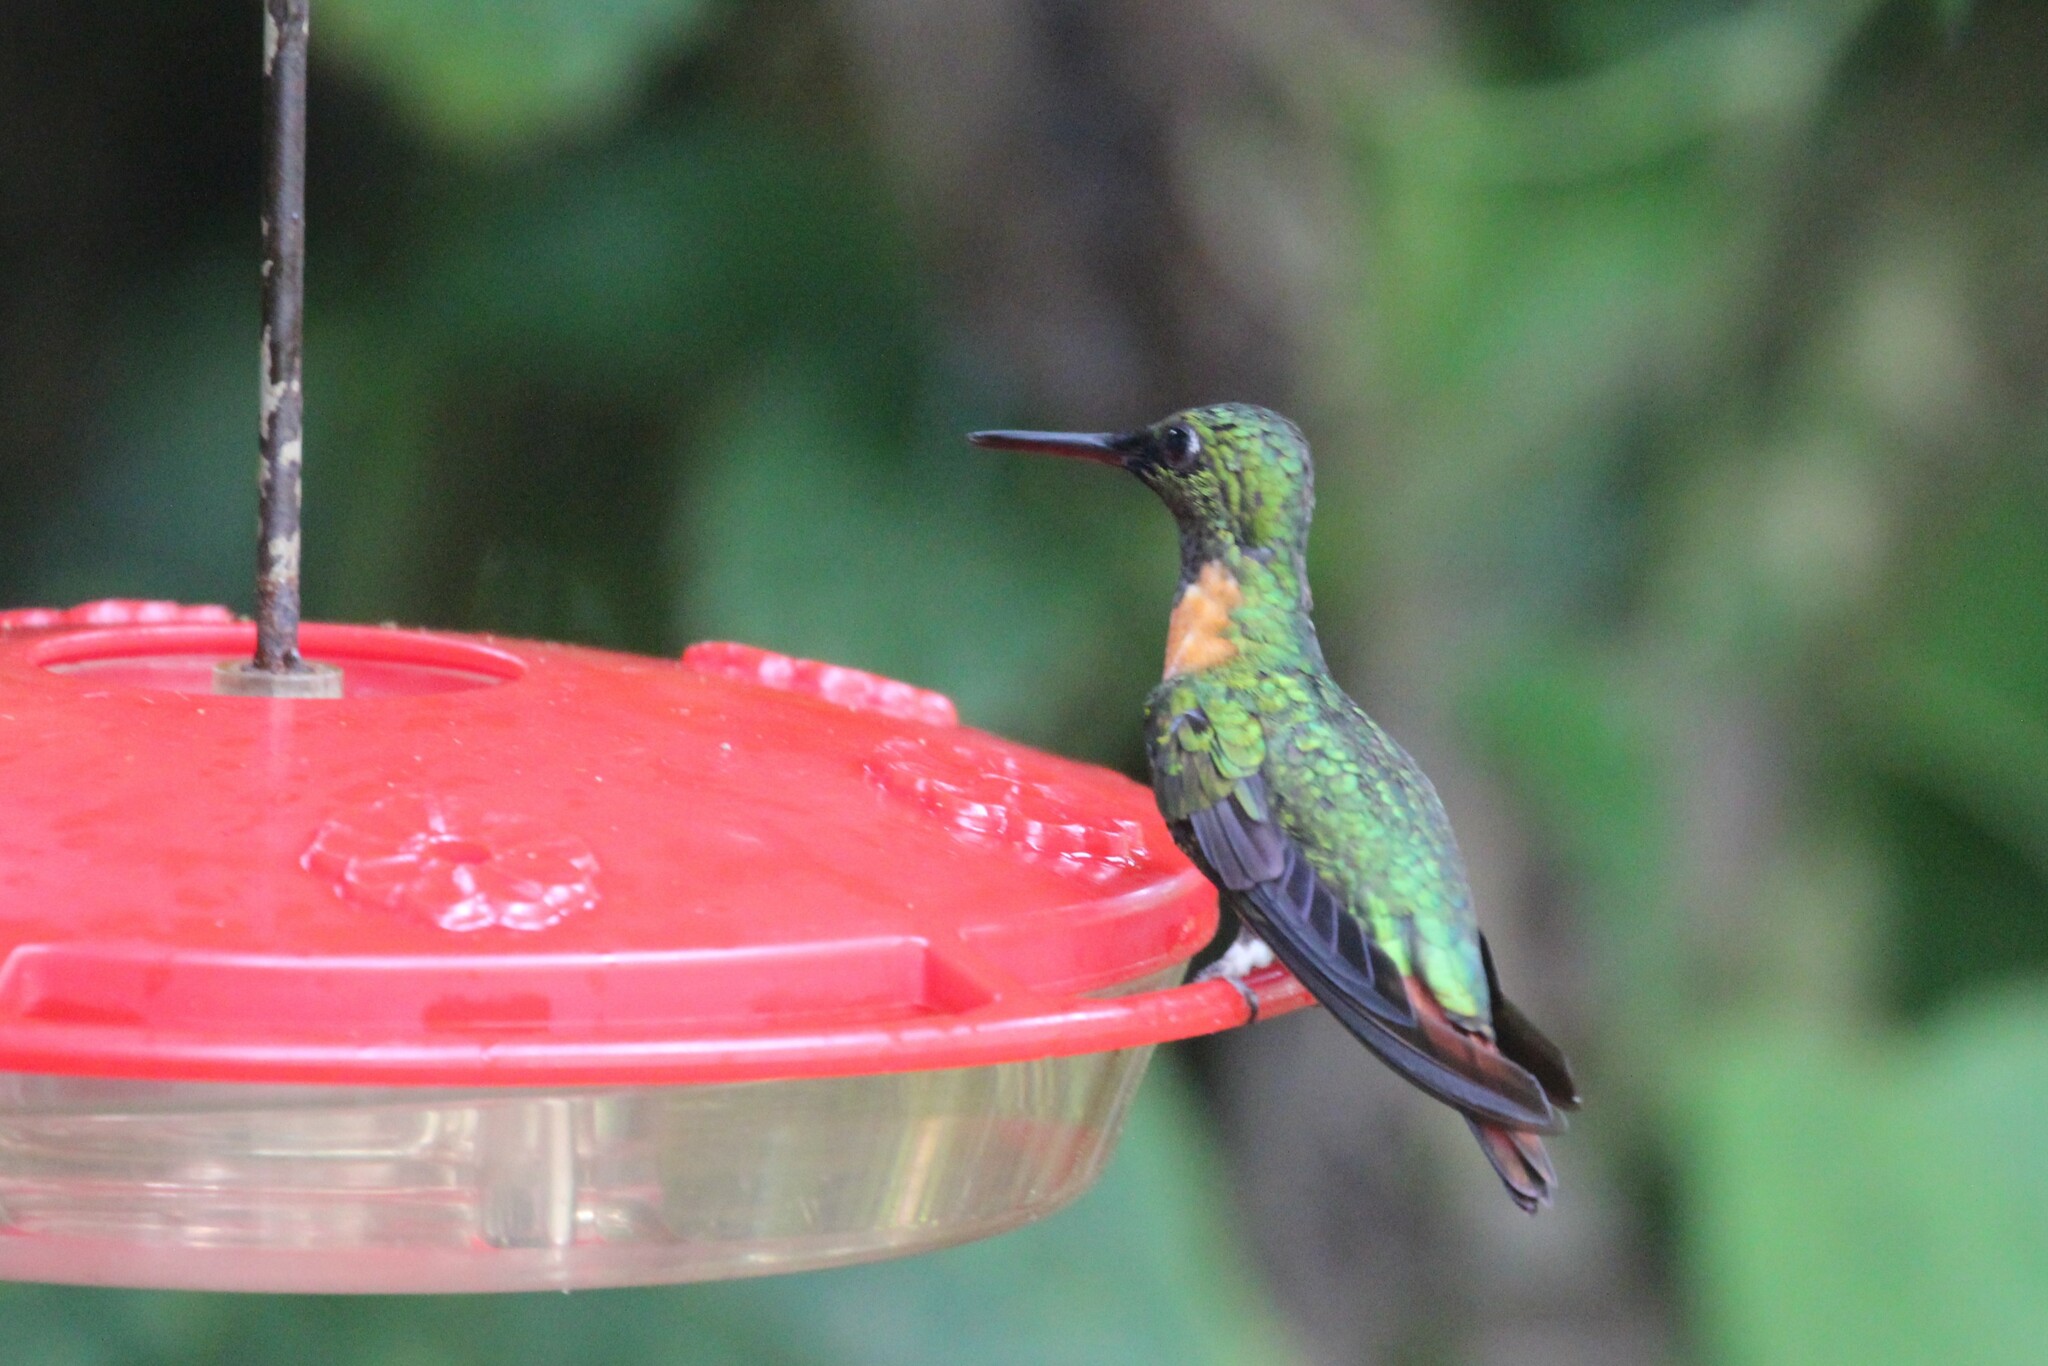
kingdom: Animalia
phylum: Chordata
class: Aves
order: Apodiformes
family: Trochilidae
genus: Heliodoxa
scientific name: Heliodoxa aurescens
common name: Gould's jewelfront
